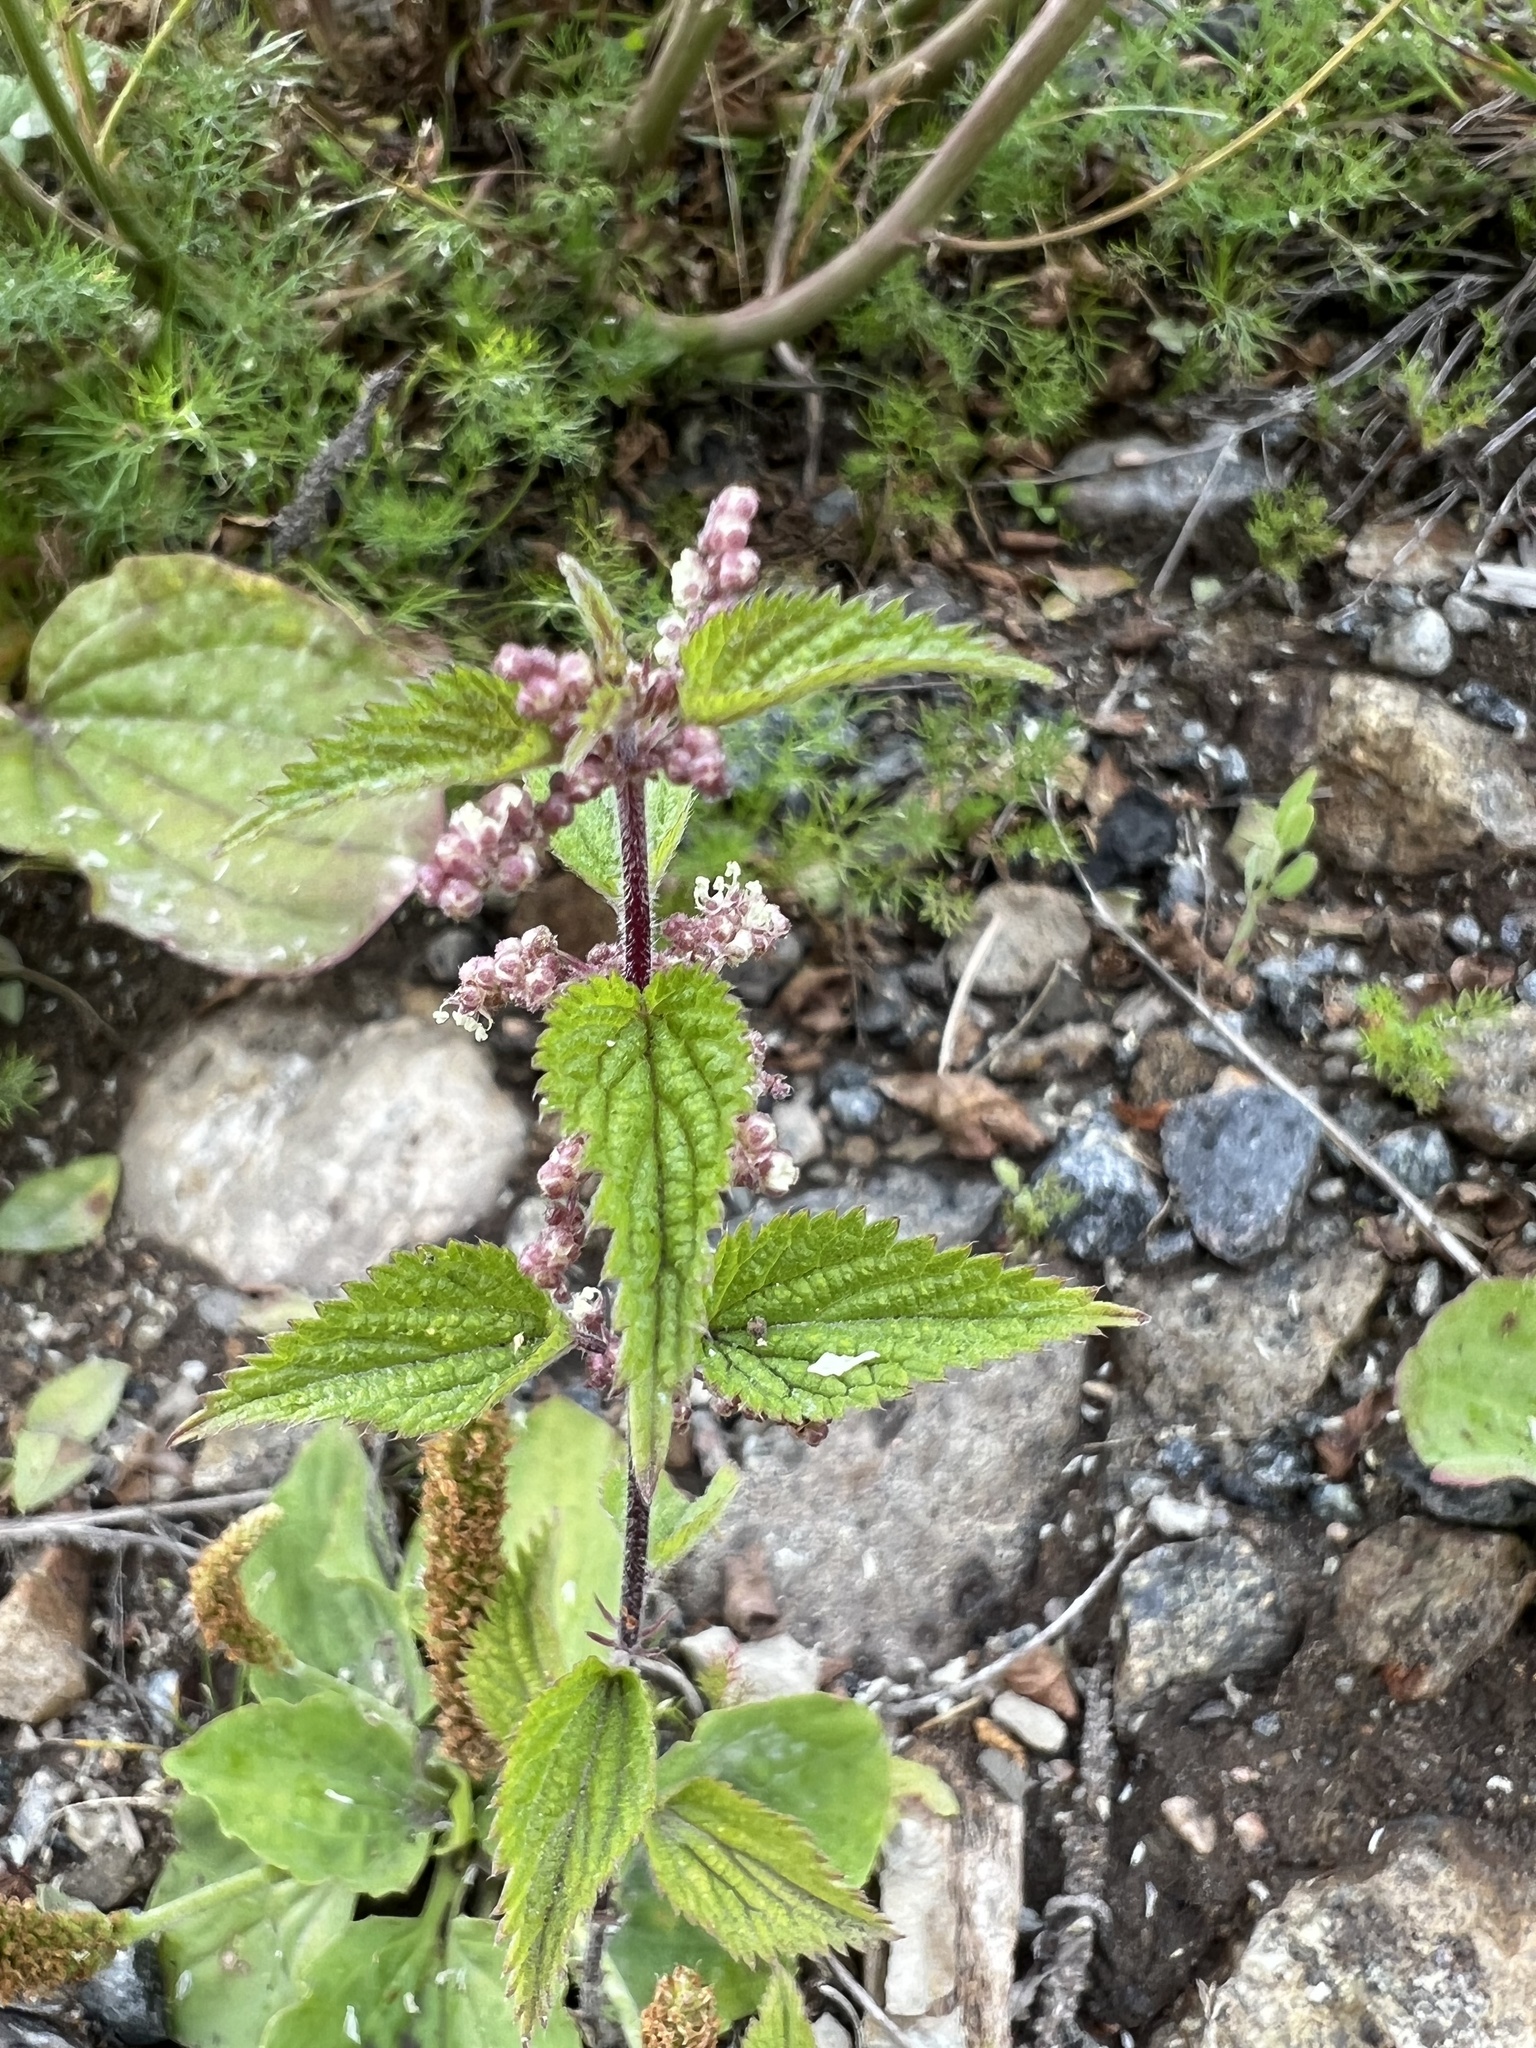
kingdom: Plantae
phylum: Tracheophyta
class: Magnoliopsida
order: Rosales
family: Urticaceae
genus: Urtica
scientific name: Urtica dioica
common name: Common nettle
